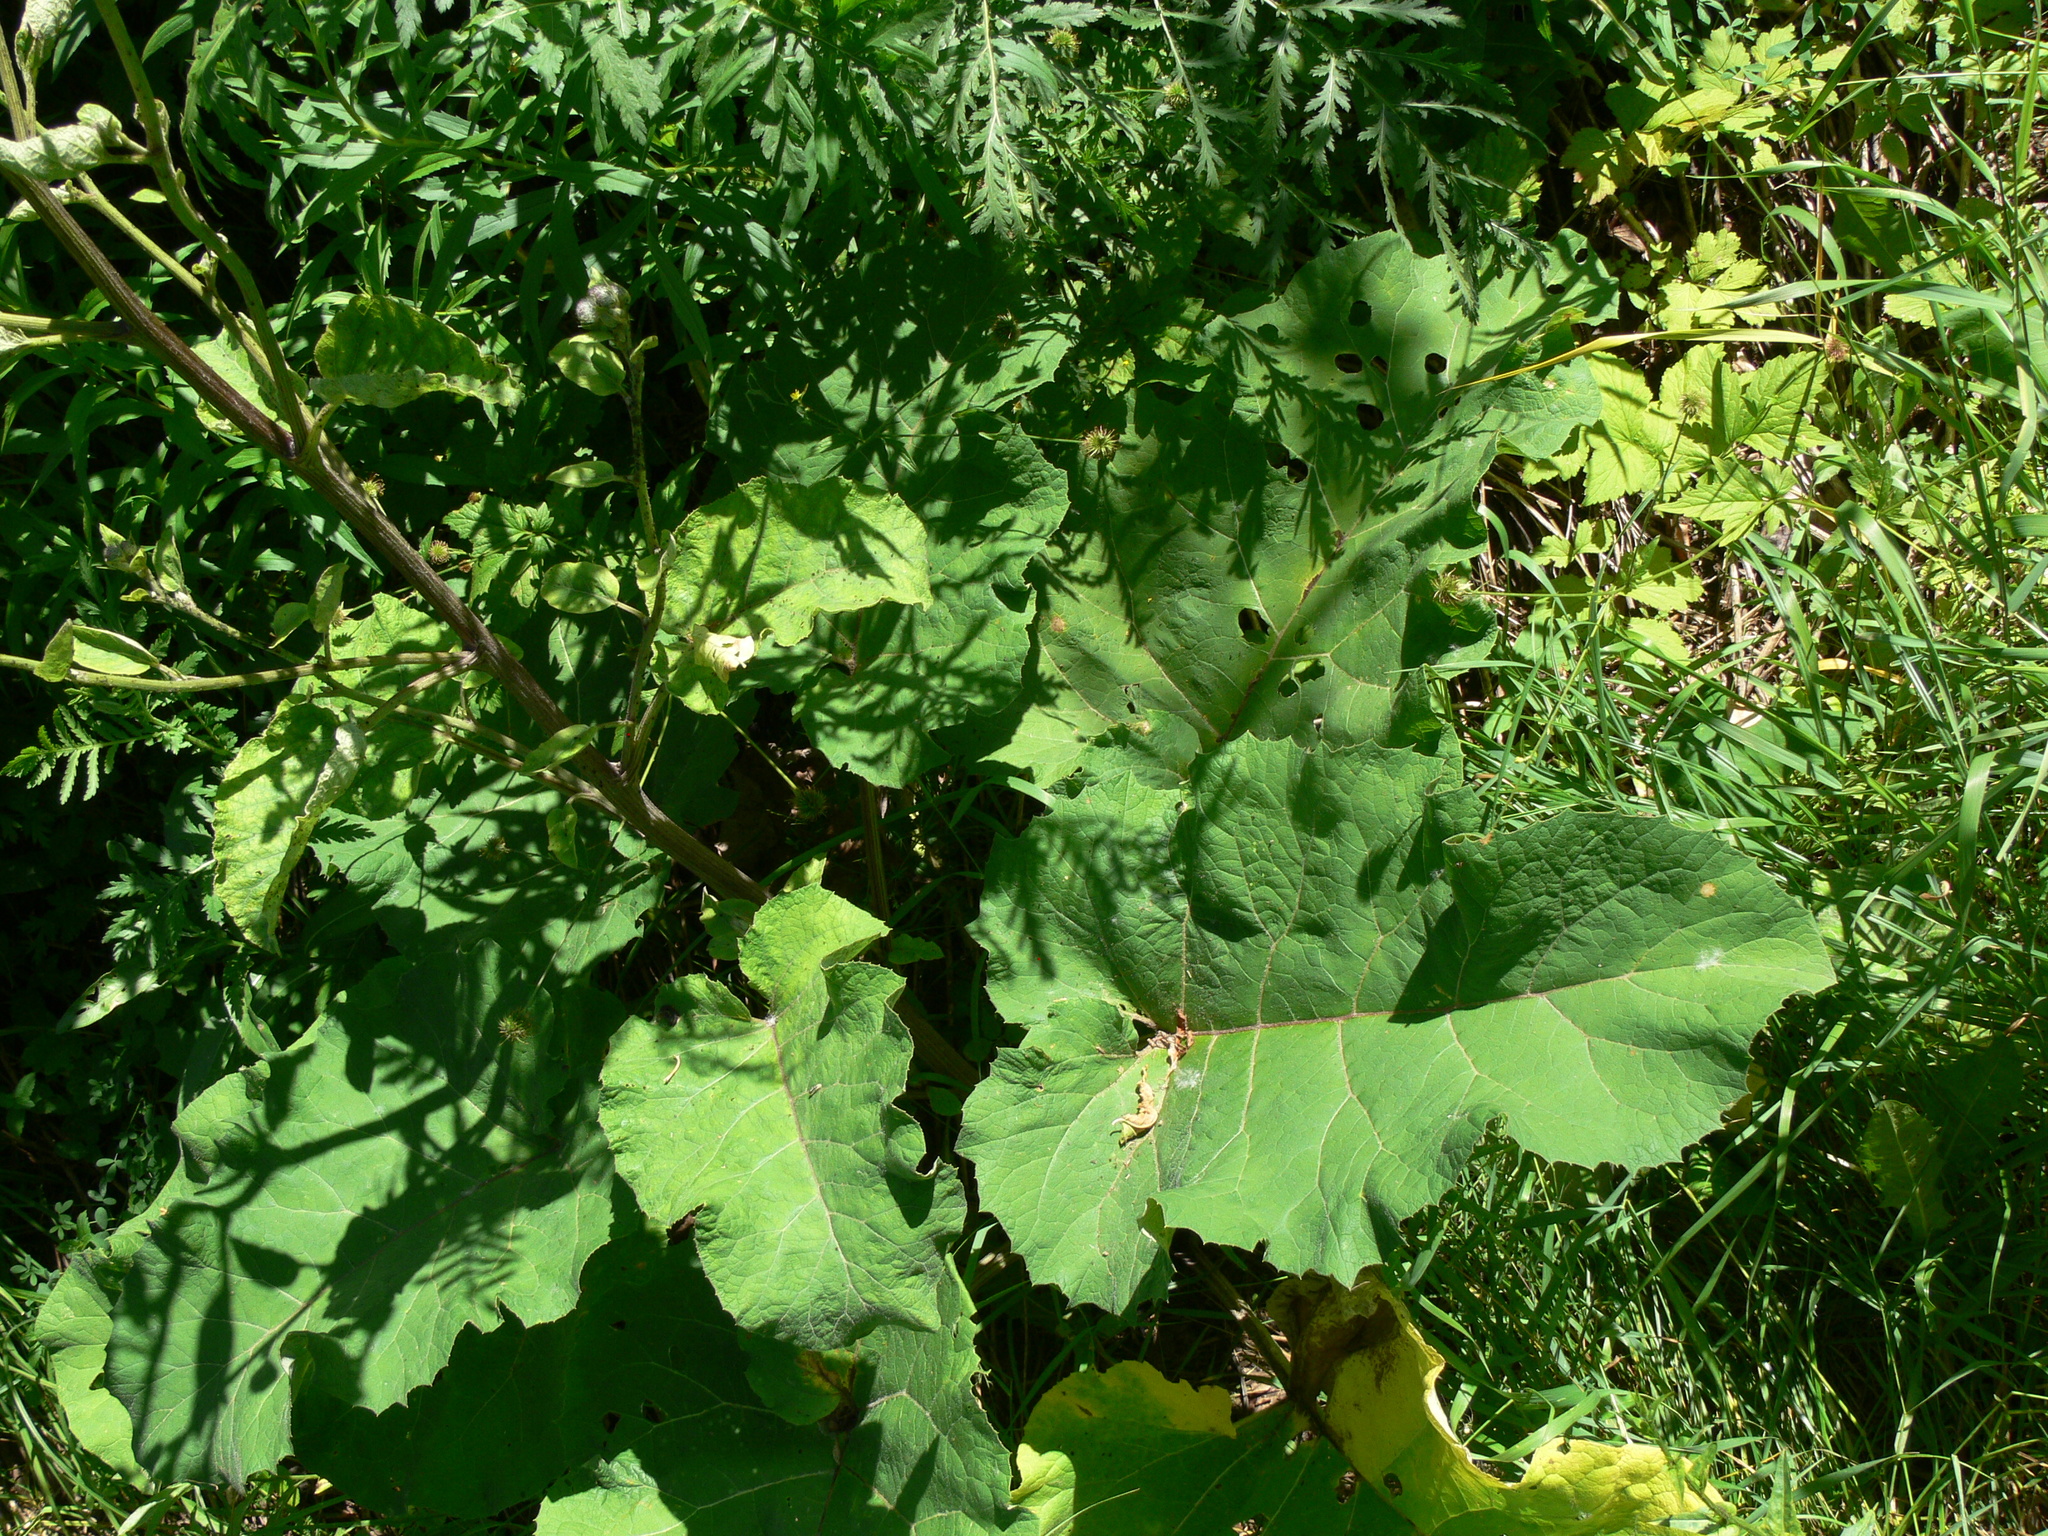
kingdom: Plantae
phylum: Tracheophyta
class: Magnoliopsida
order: Asterales
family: Asteraceae
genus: Arctium
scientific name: Arctium tomentosum
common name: Woolly burdock
